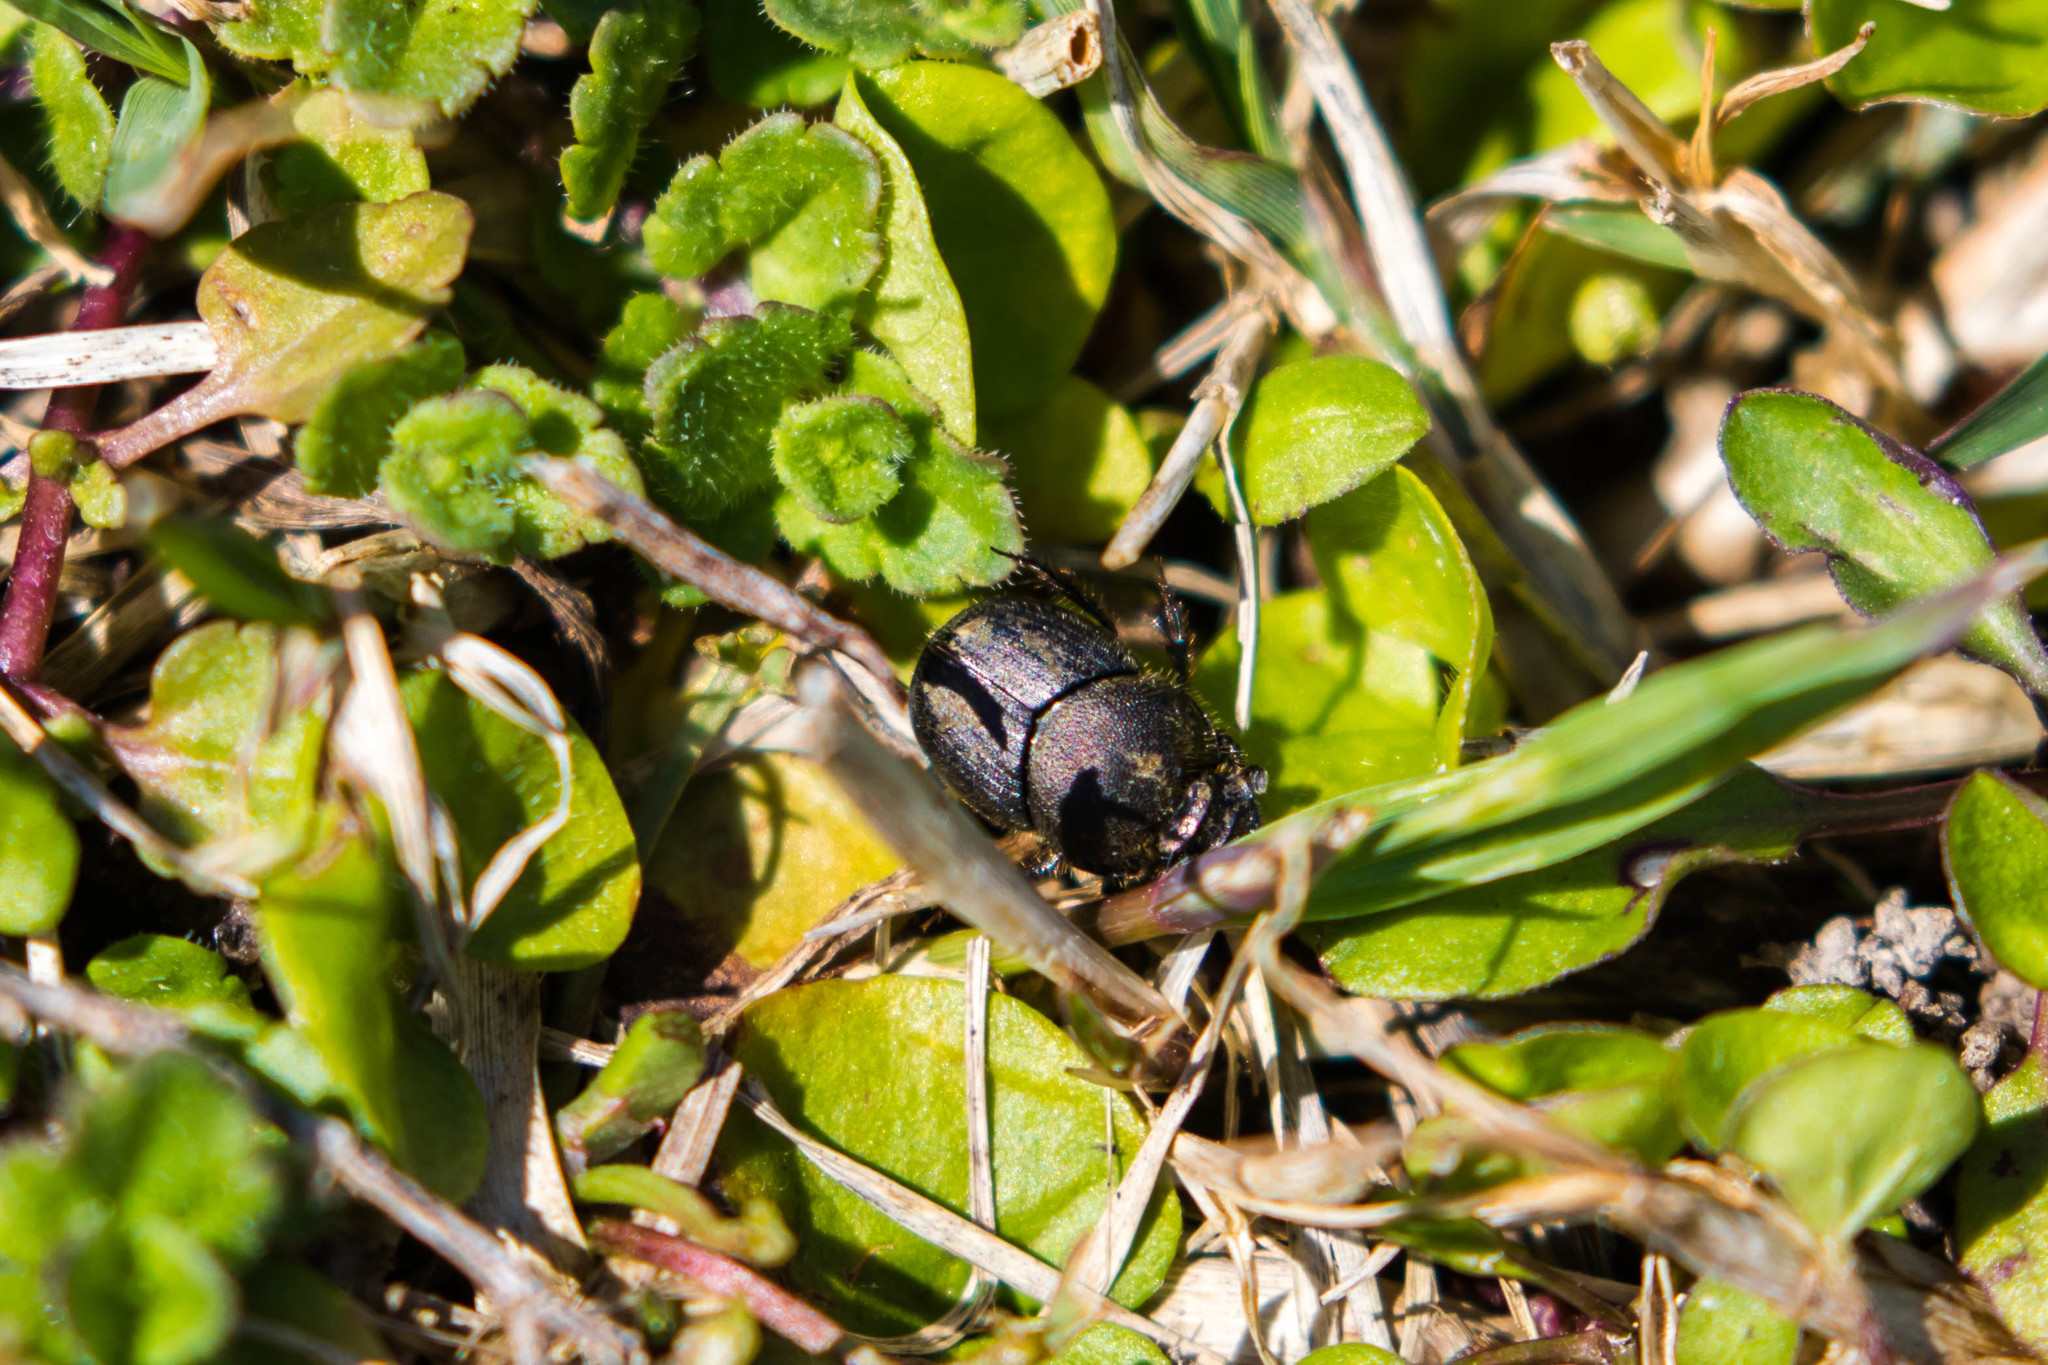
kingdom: Animalia
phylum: Arthropoda
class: Insecta
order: Coleoptera
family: Scarabaeidae
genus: Onthophagus
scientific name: Onthophagus hecate
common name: Scooped scarab
